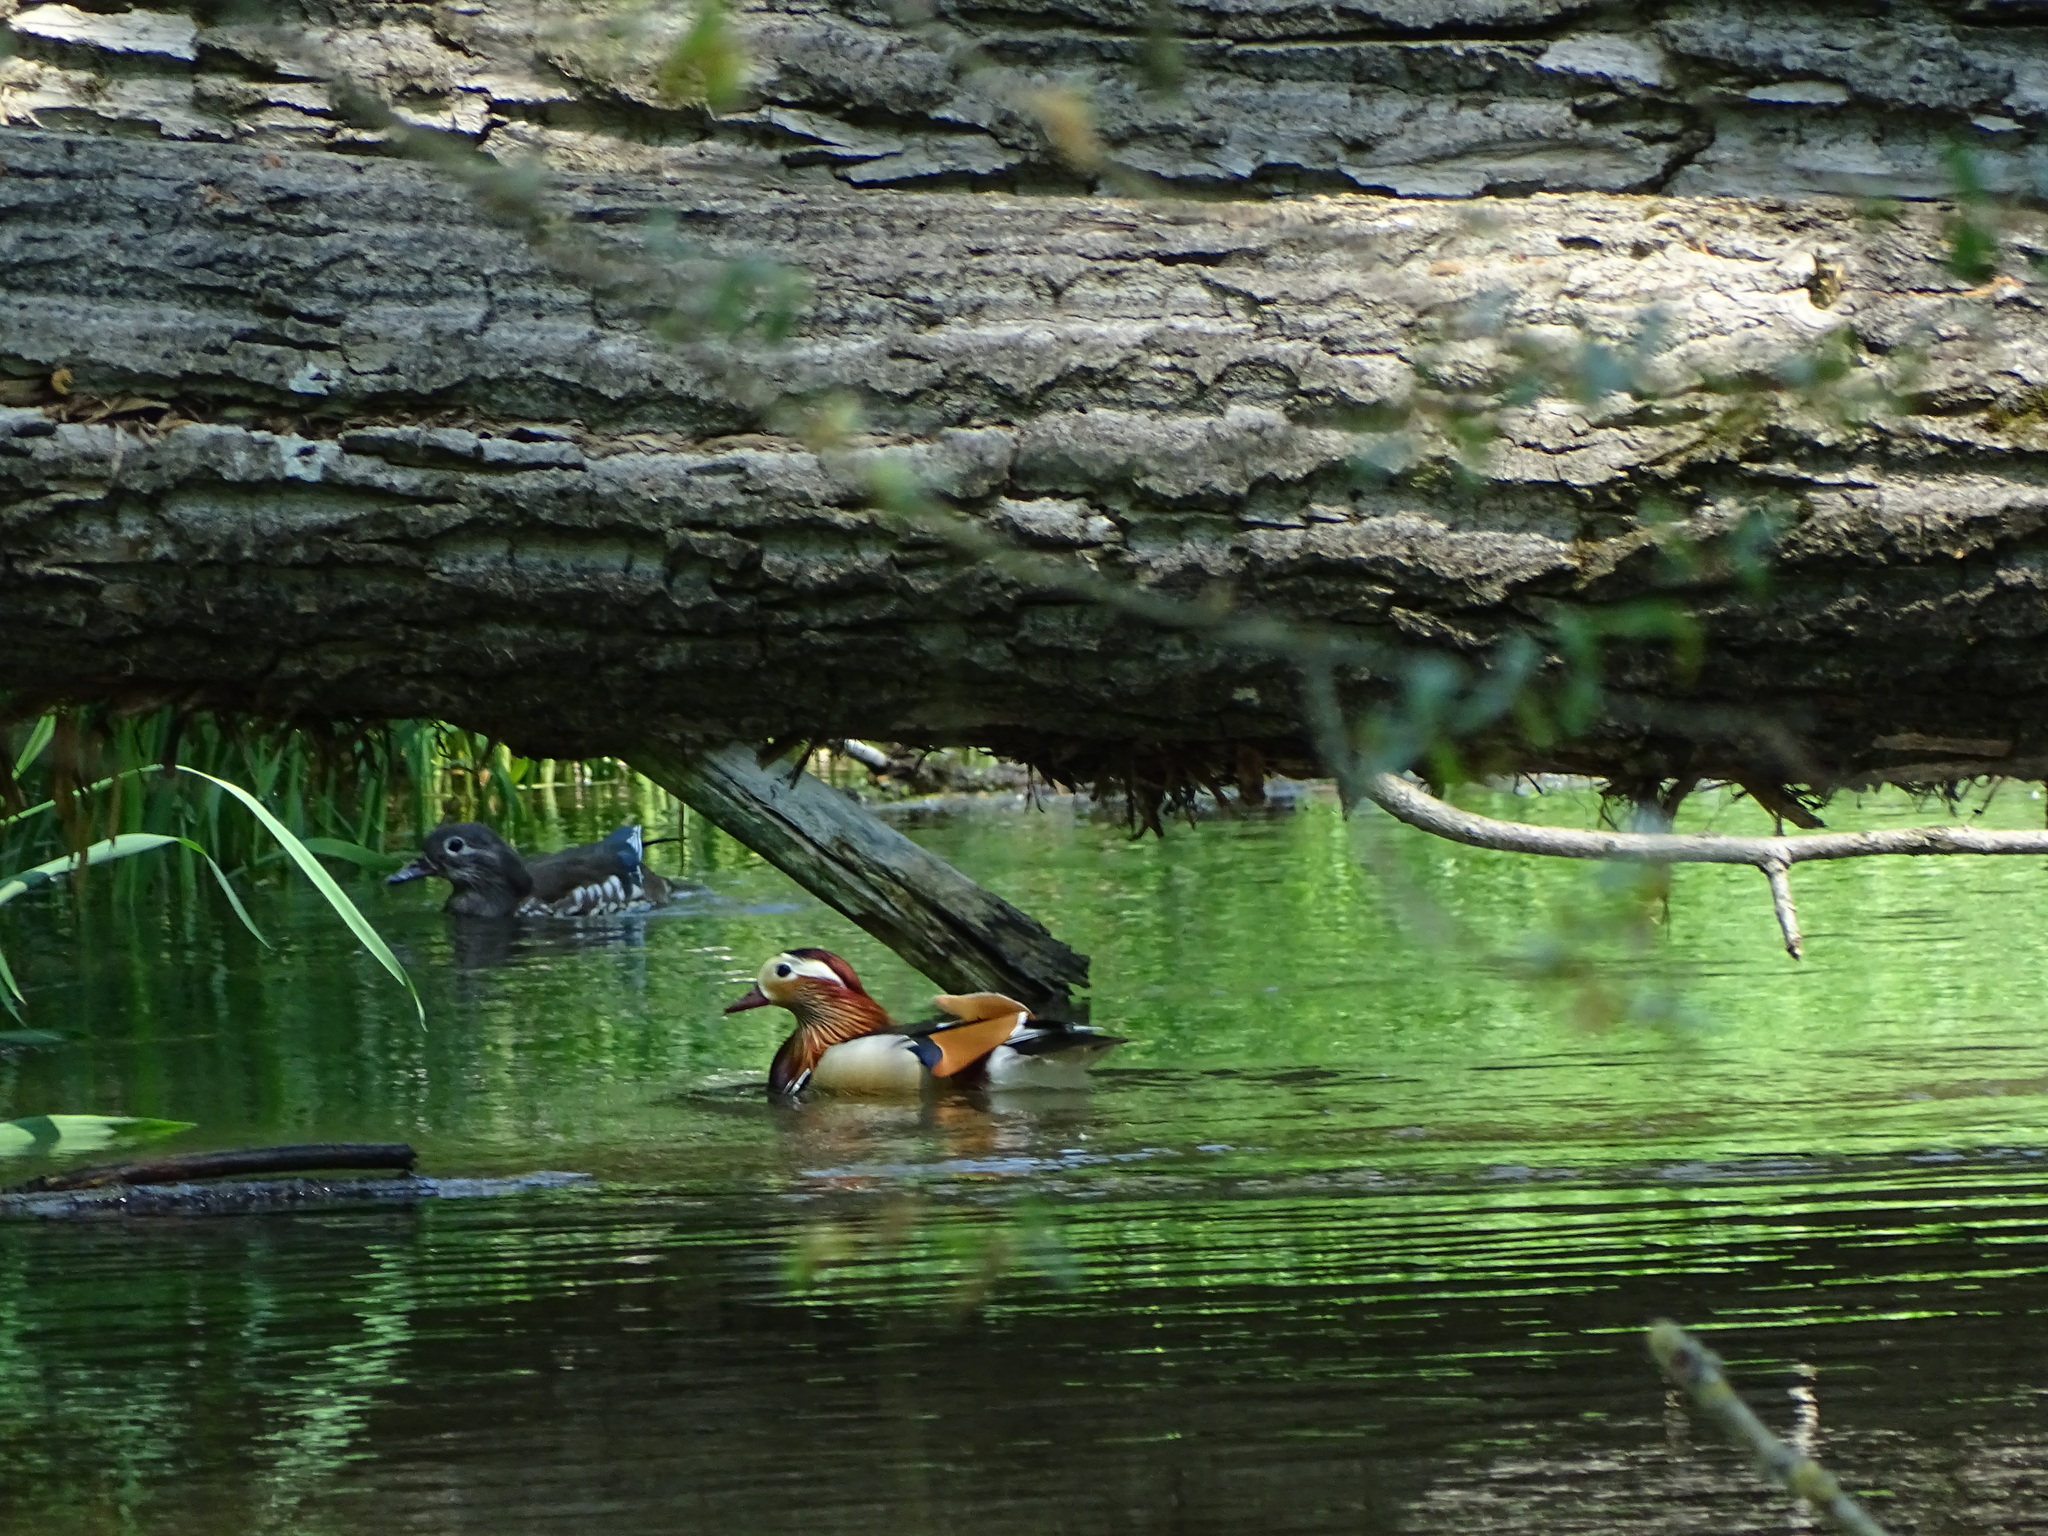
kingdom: Animalia
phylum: Chordata
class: Aves
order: Anseriformes
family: Anatidae
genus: Aix
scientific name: Aix galericulata
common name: Mandarin duck
